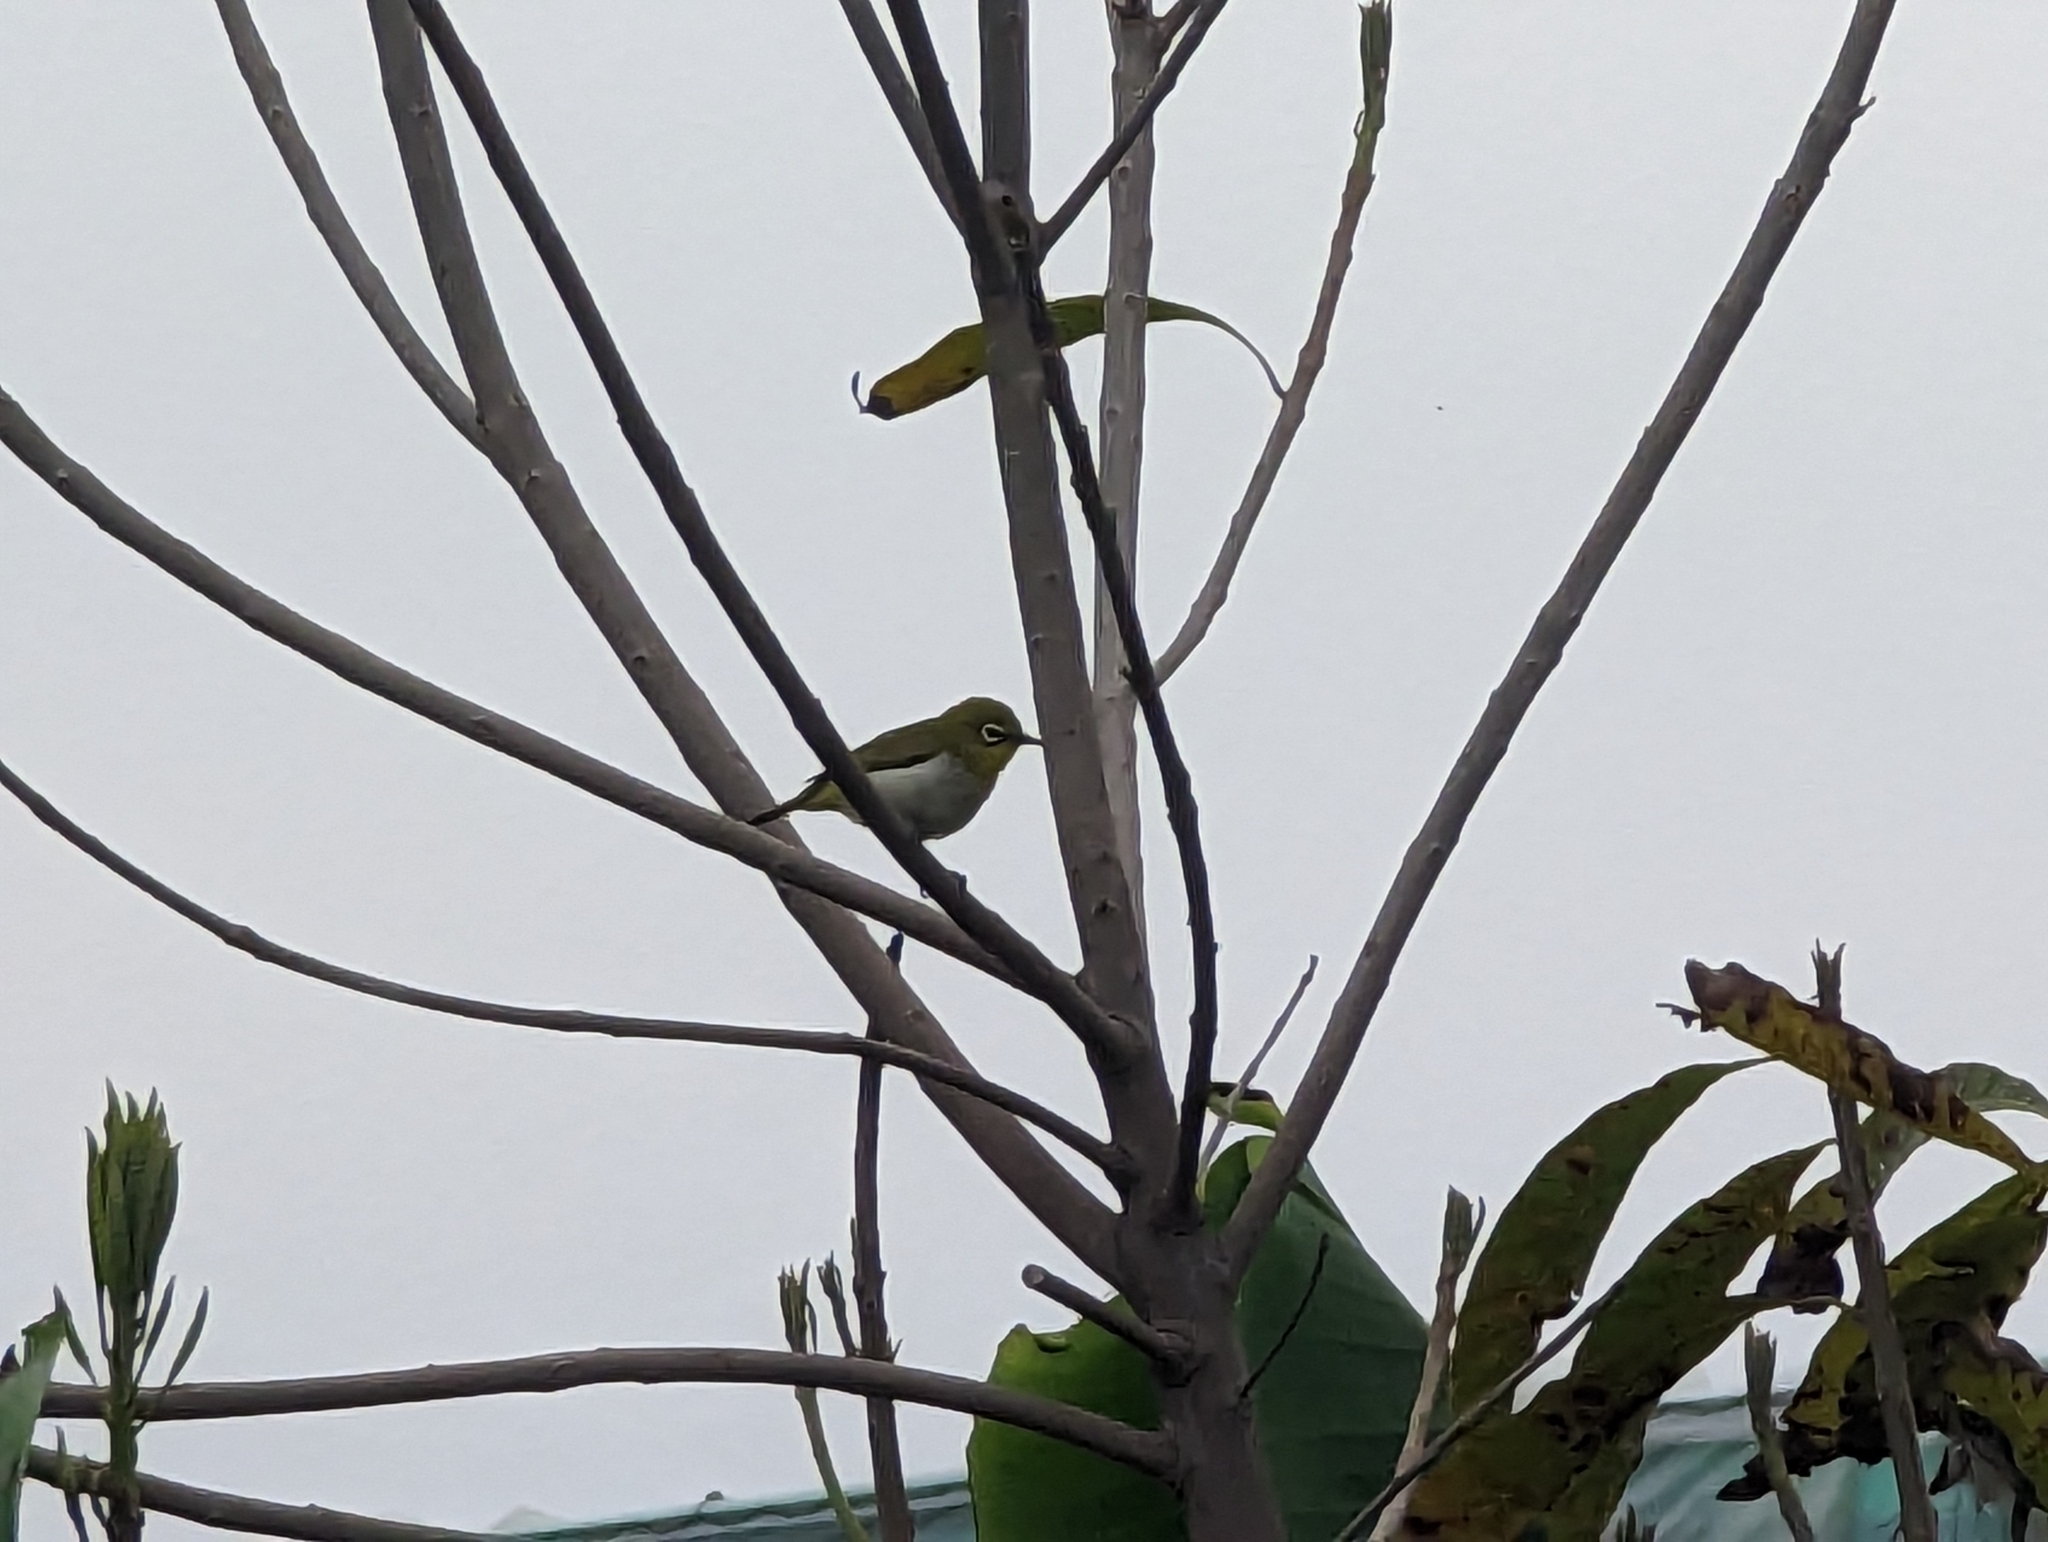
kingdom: Animalia
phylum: Chordata
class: Aves
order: Passeriformes
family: Zosteropidae
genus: Zosterops
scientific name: Zosterops simplex
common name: Swinhoe's white-eye
